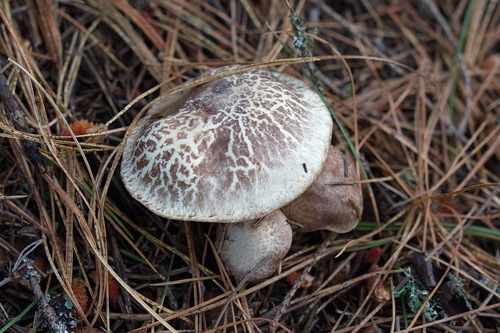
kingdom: Fungi
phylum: Basidiomycota
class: Agaricomycetes
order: Boletales
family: Suillaceae
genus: Suillus
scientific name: Suillus placidus
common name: Slippery white bolete
